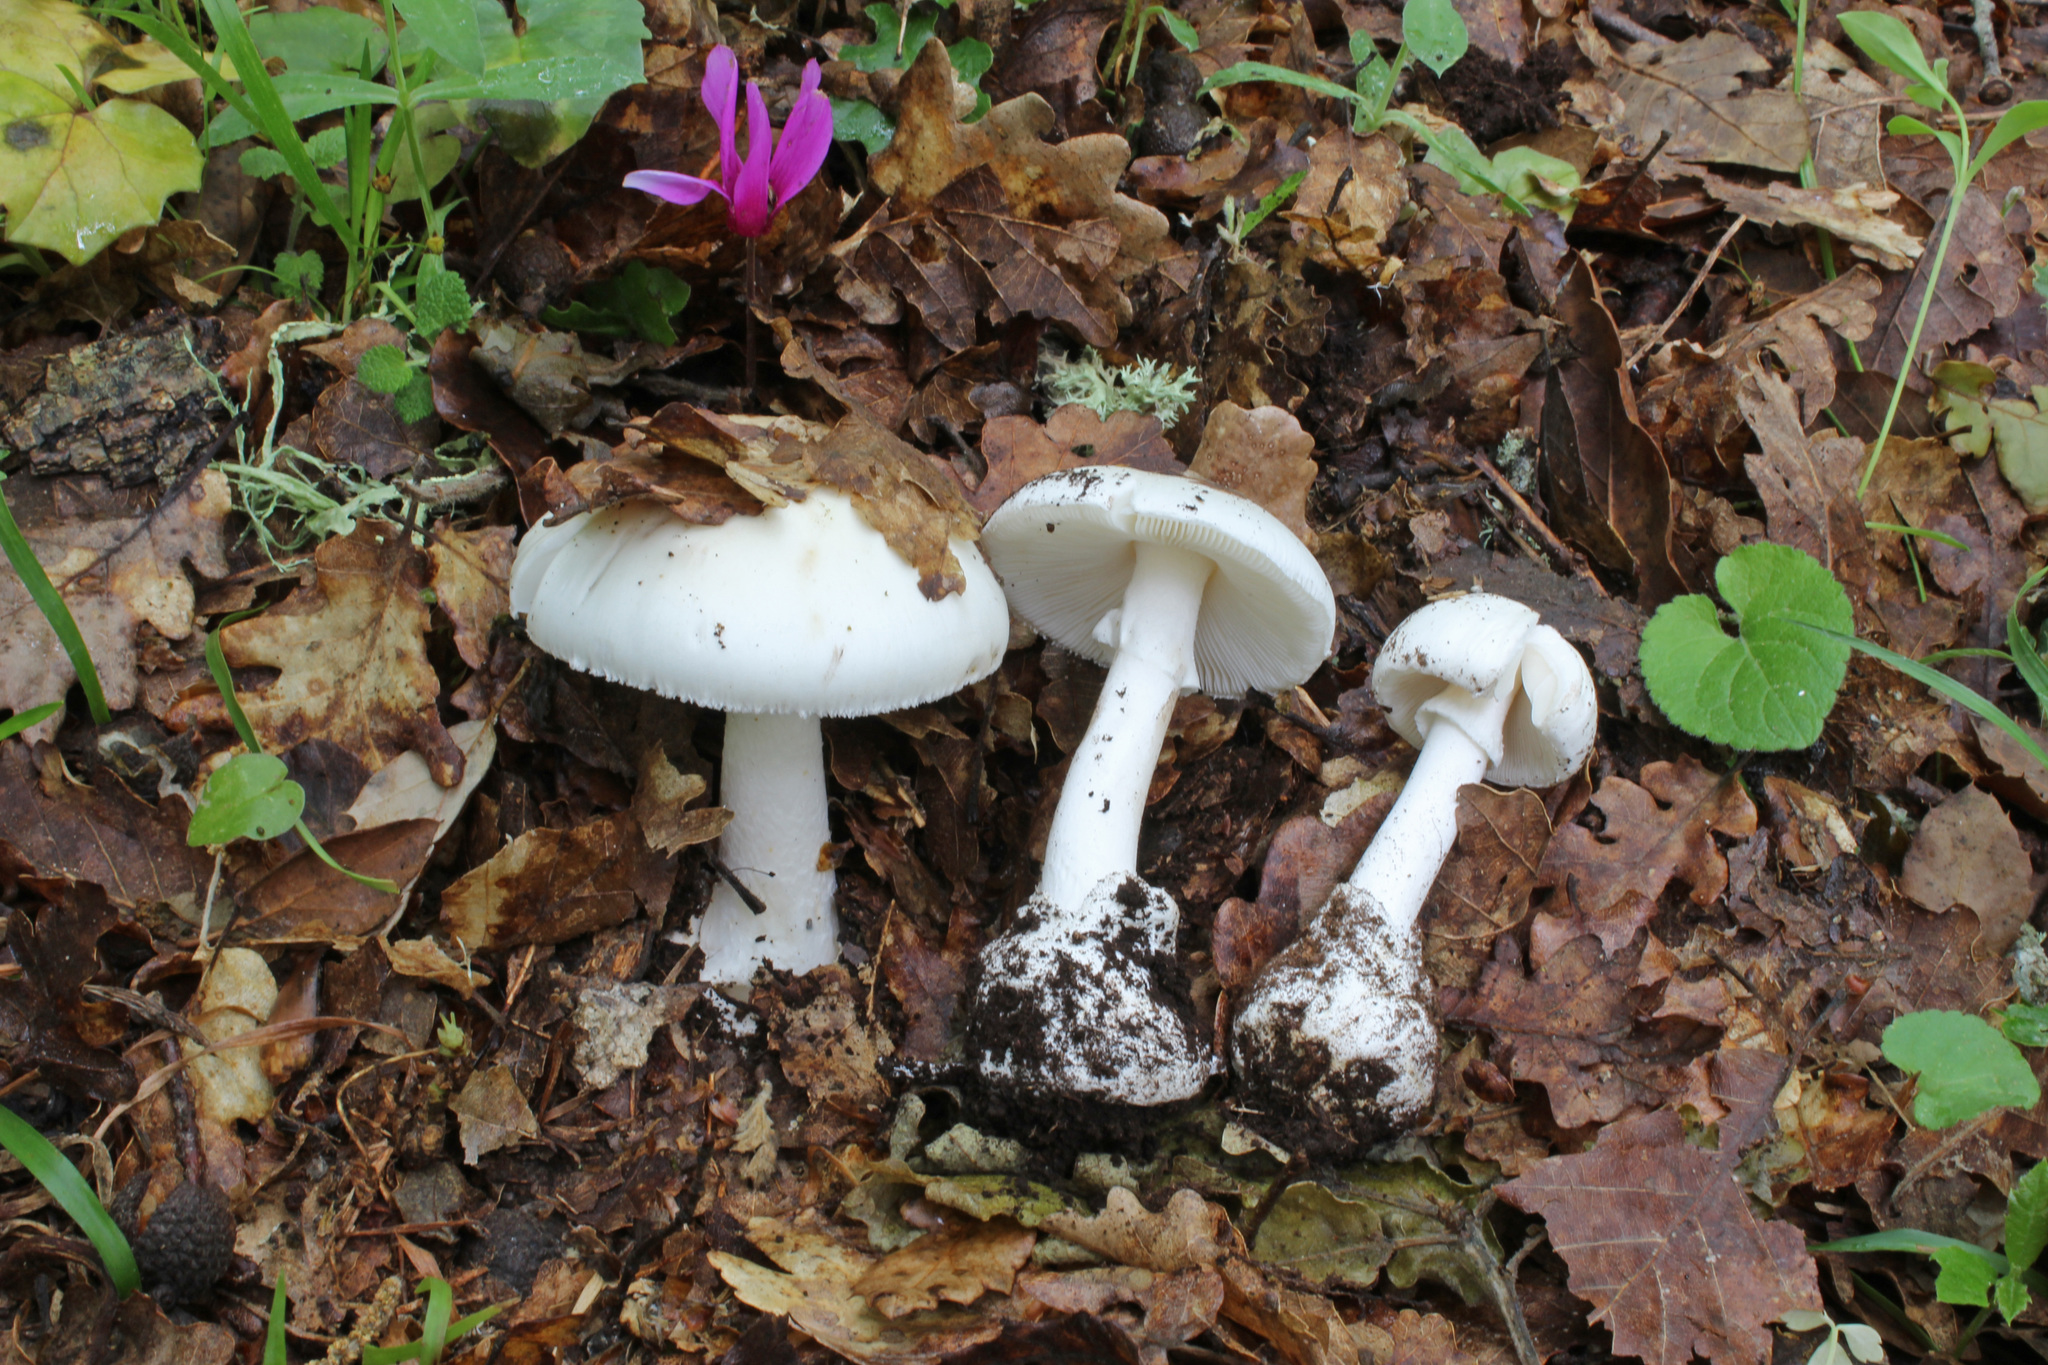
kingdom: Fungi
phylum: Basidiomycota
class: Agaricomycetes
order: Agaricales
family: Amanitaceae
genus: Amanita
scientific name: Amanita verna
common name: Fool's mushroom
